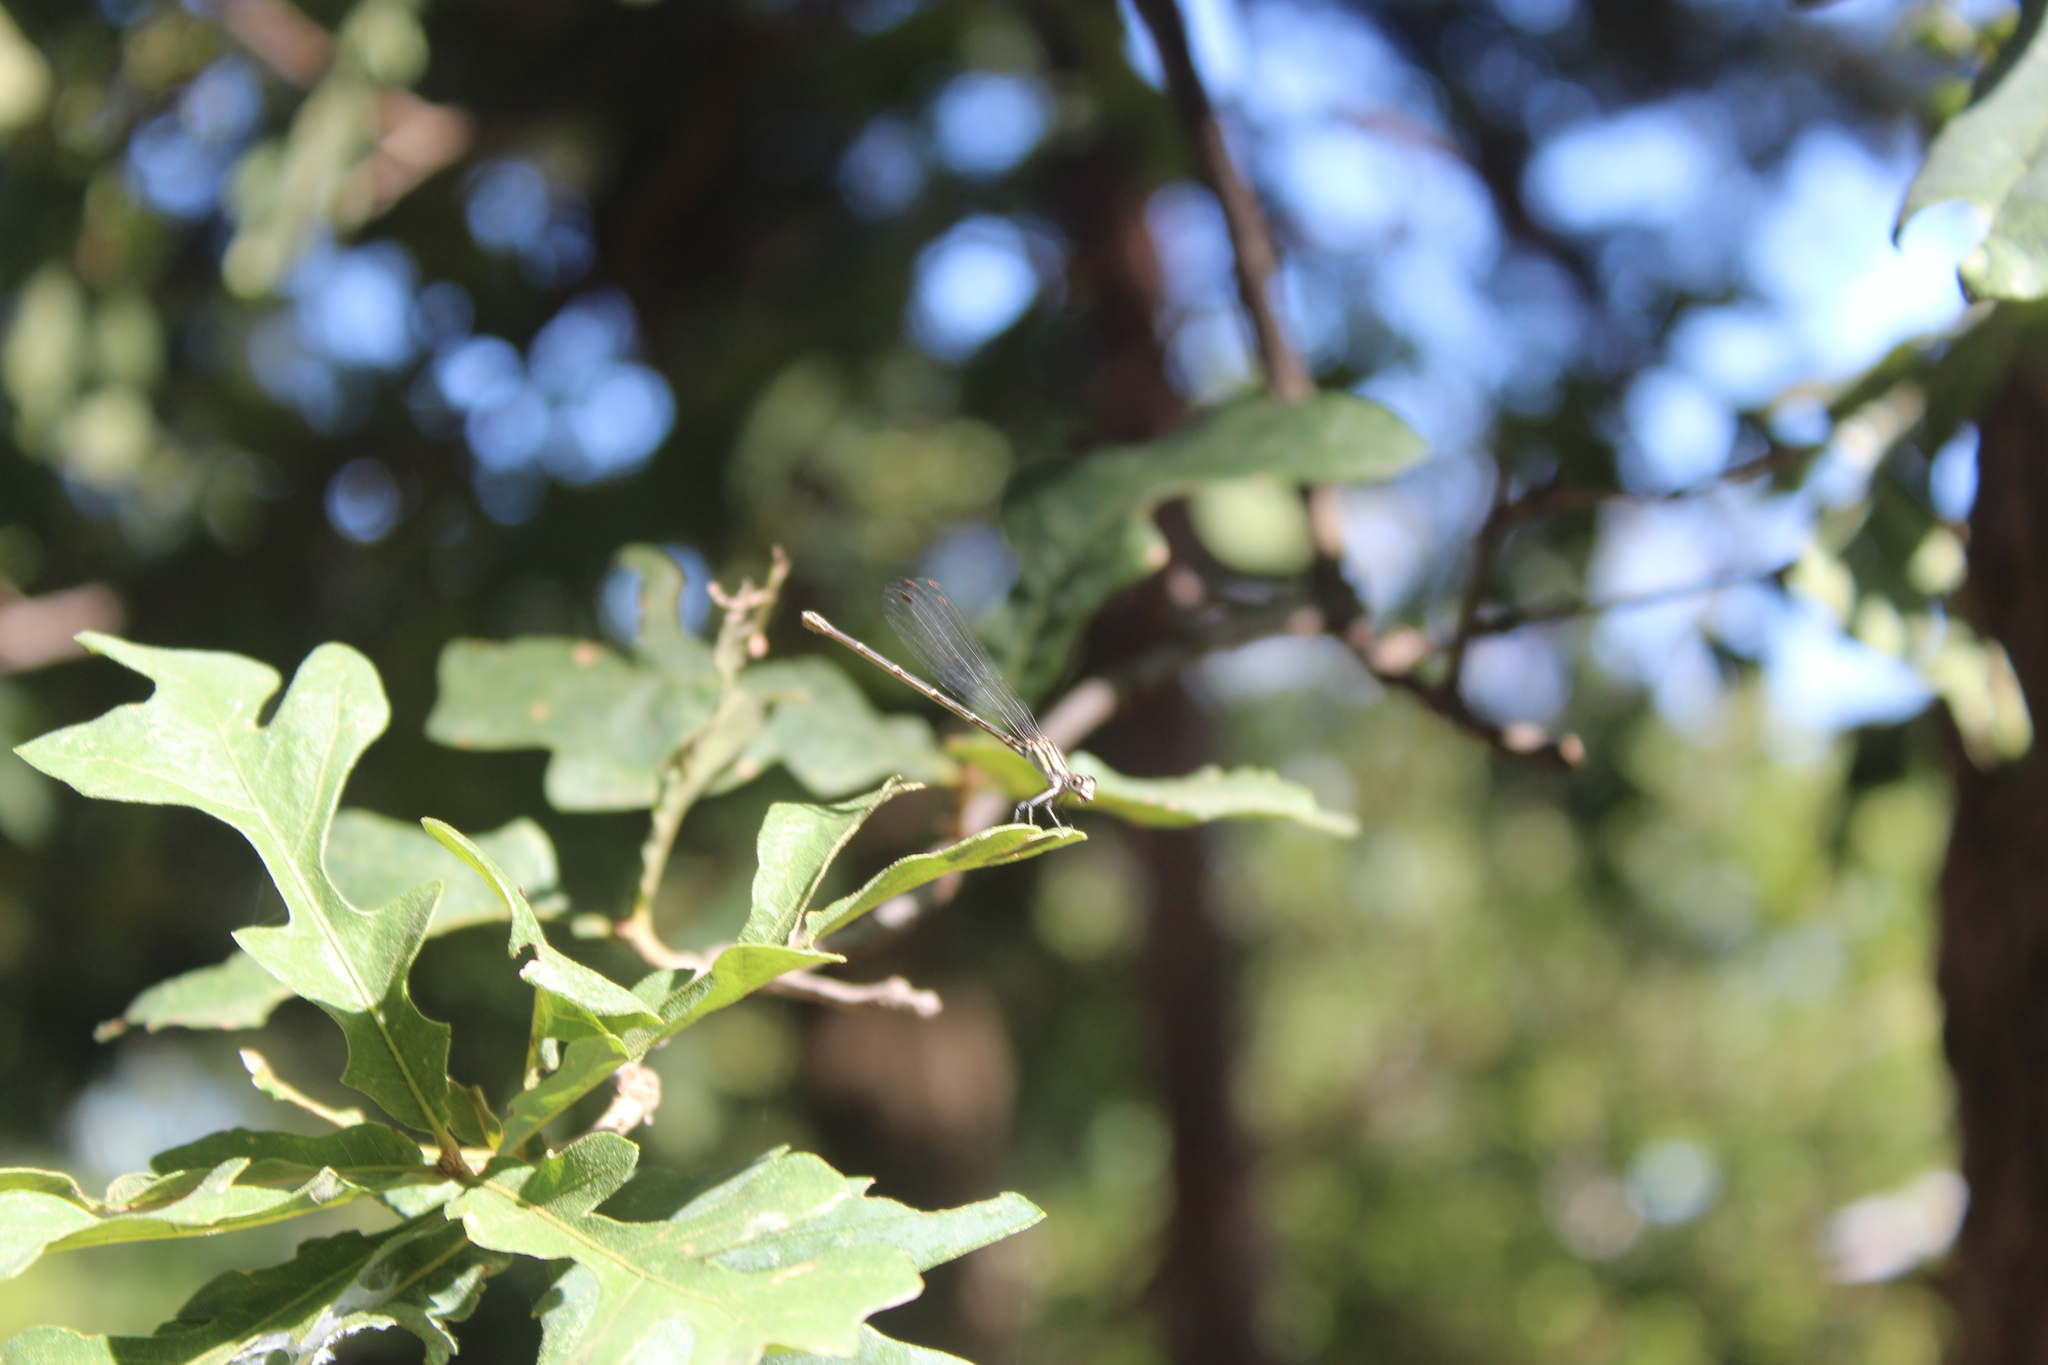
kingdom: Animalia
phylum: Arthropoda
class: Insecta
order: Odonata
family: Coenagrionidae
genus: Argia
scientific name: Argia translata
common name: Dusky dancer
